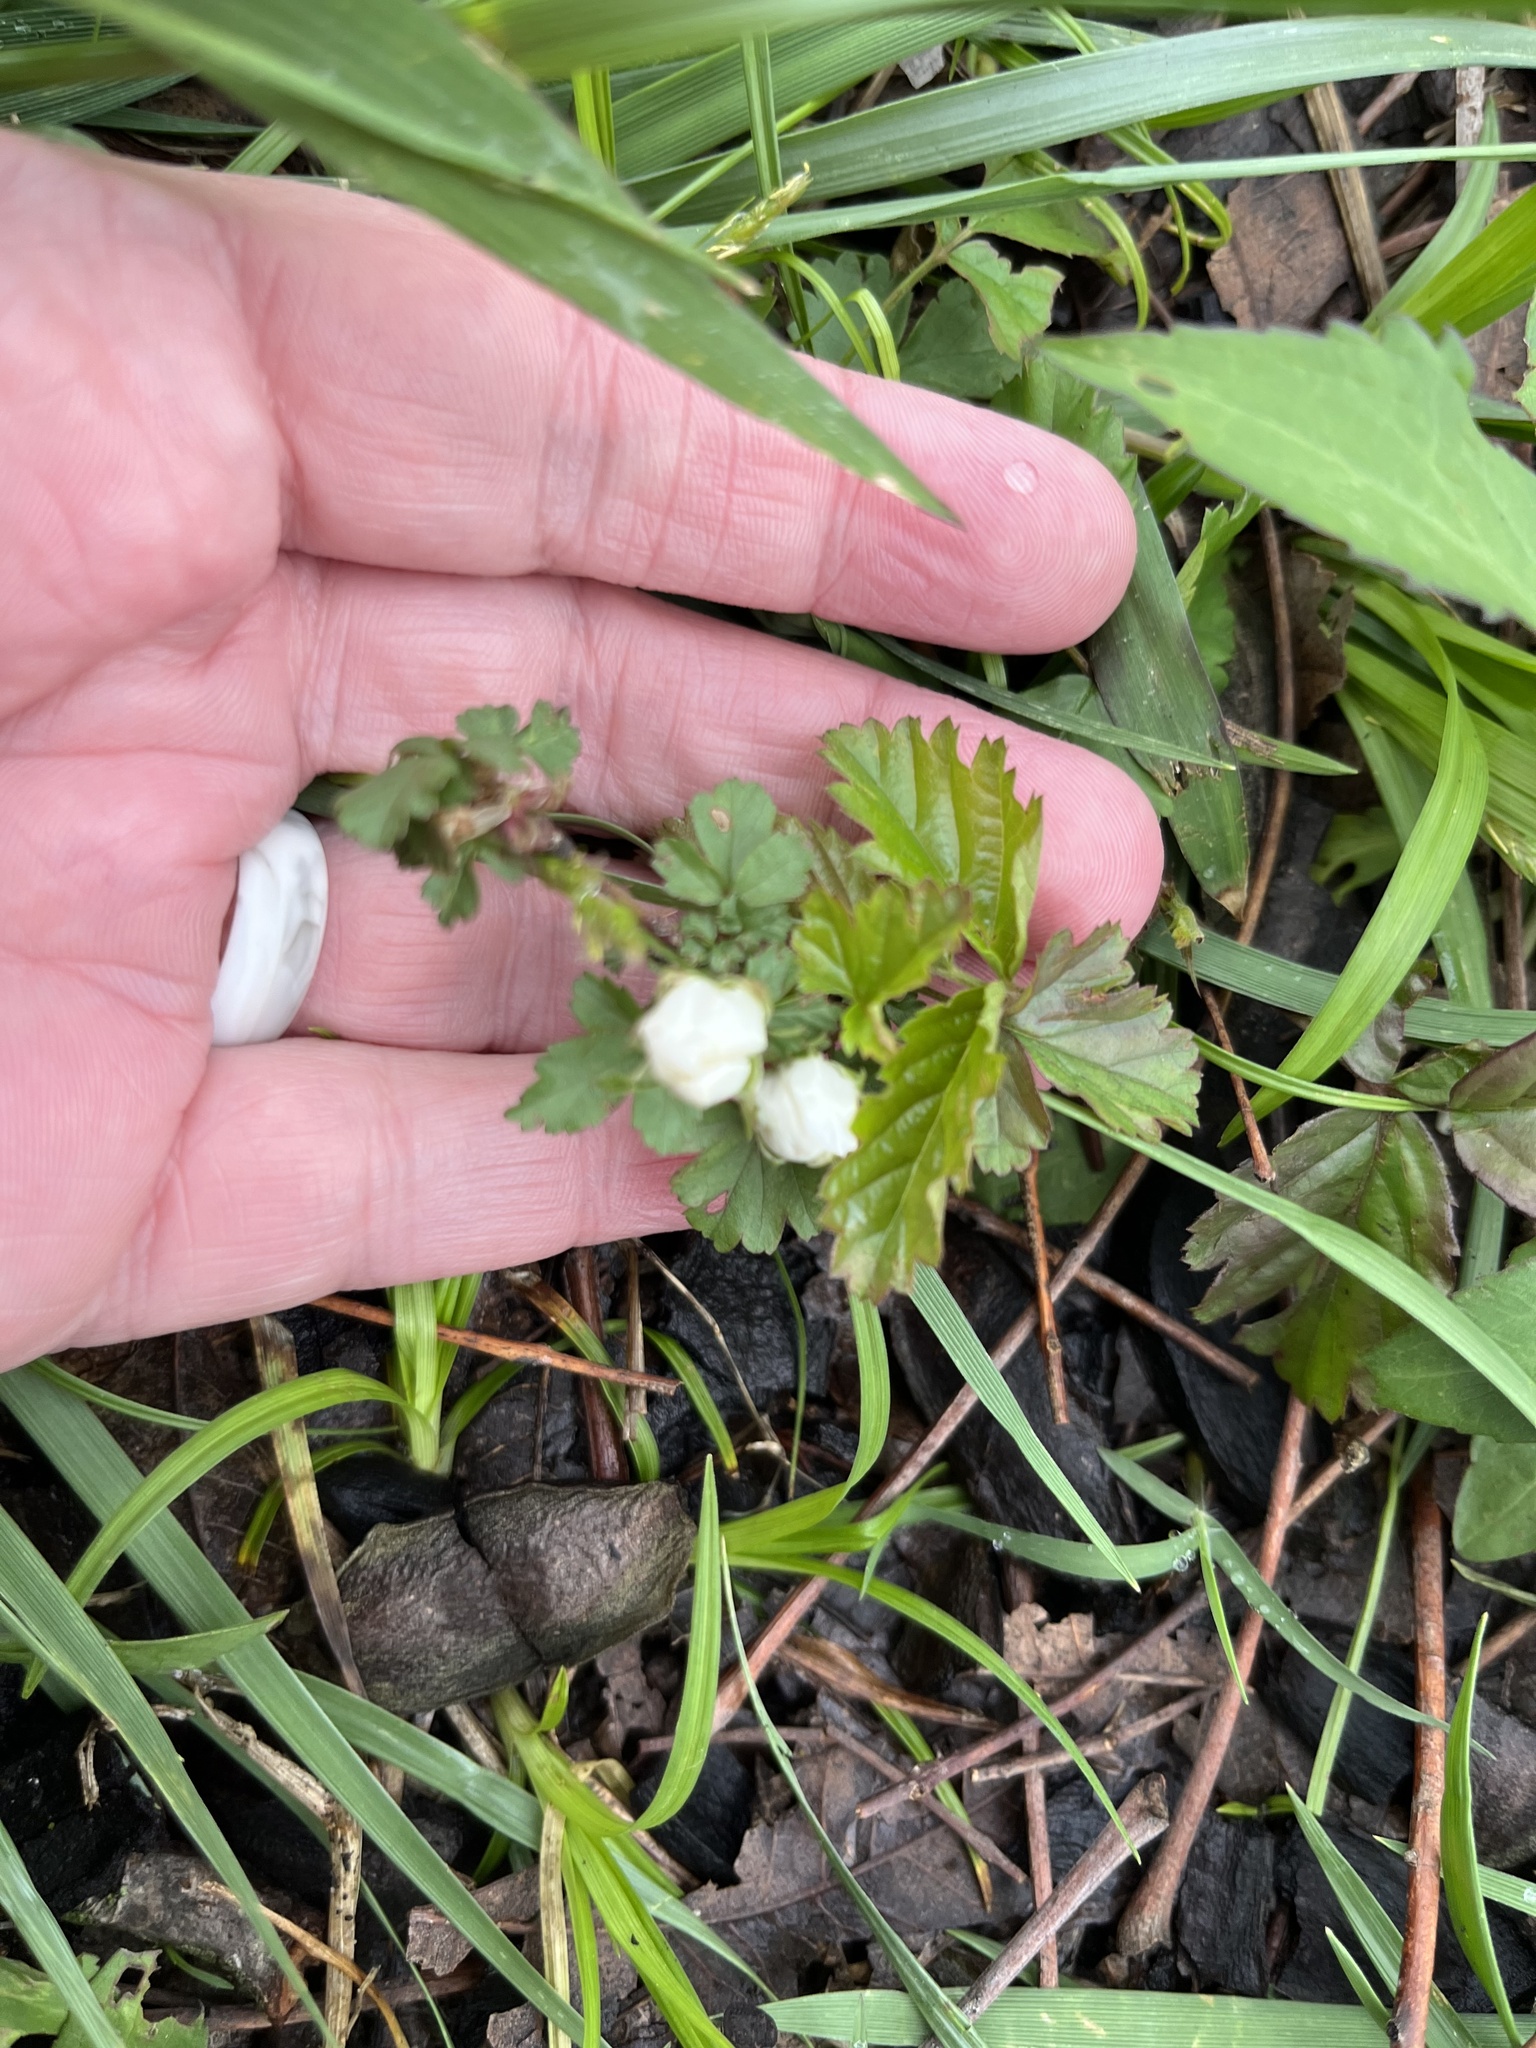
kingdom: Plantae
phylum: Tracheophyta
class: Magnoliopsida
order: Rosales
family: Rosaceae
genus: Rubus
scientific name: Rubus trivialis
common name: Southern dewberry
